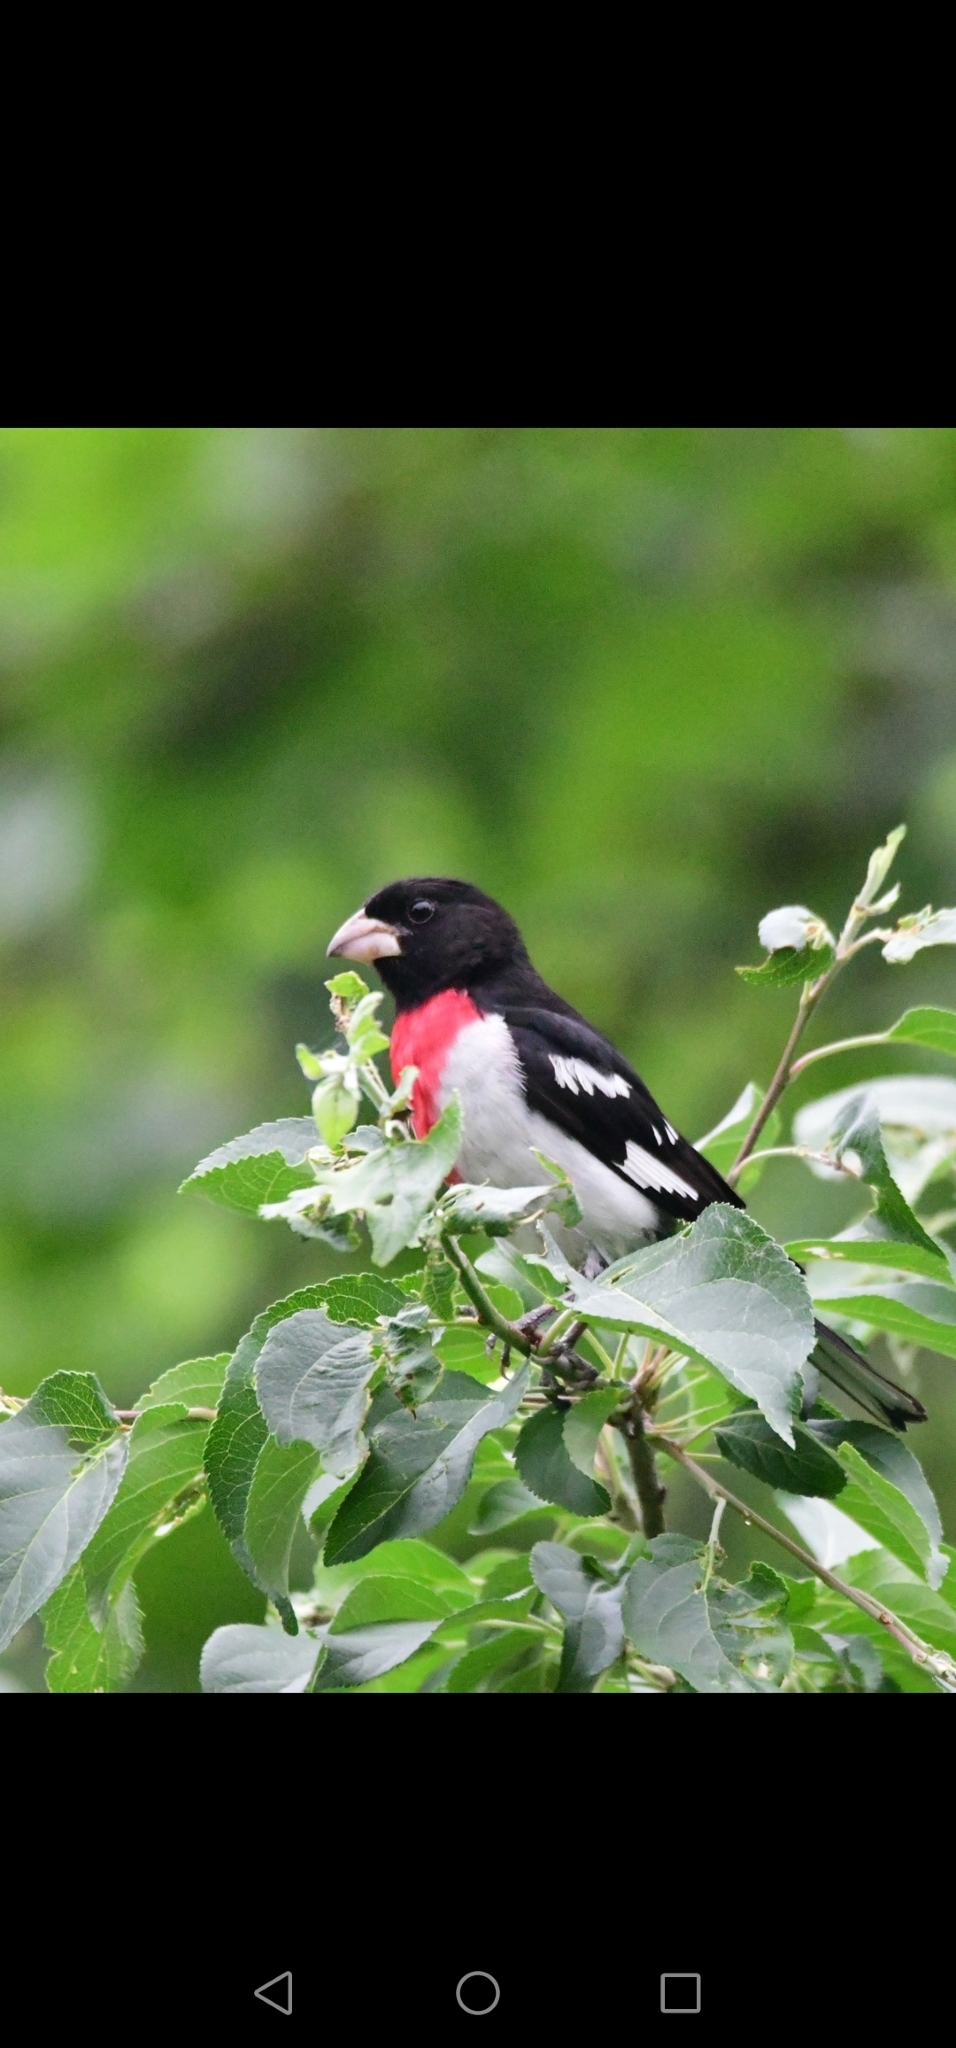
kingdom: Animalia
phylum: Chordata
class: Aves
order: Passeriformes
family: Cardinalidae
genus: Pheucticus
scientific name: Pheucticus ludovicianus
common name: Rose-breasted grosbeak
